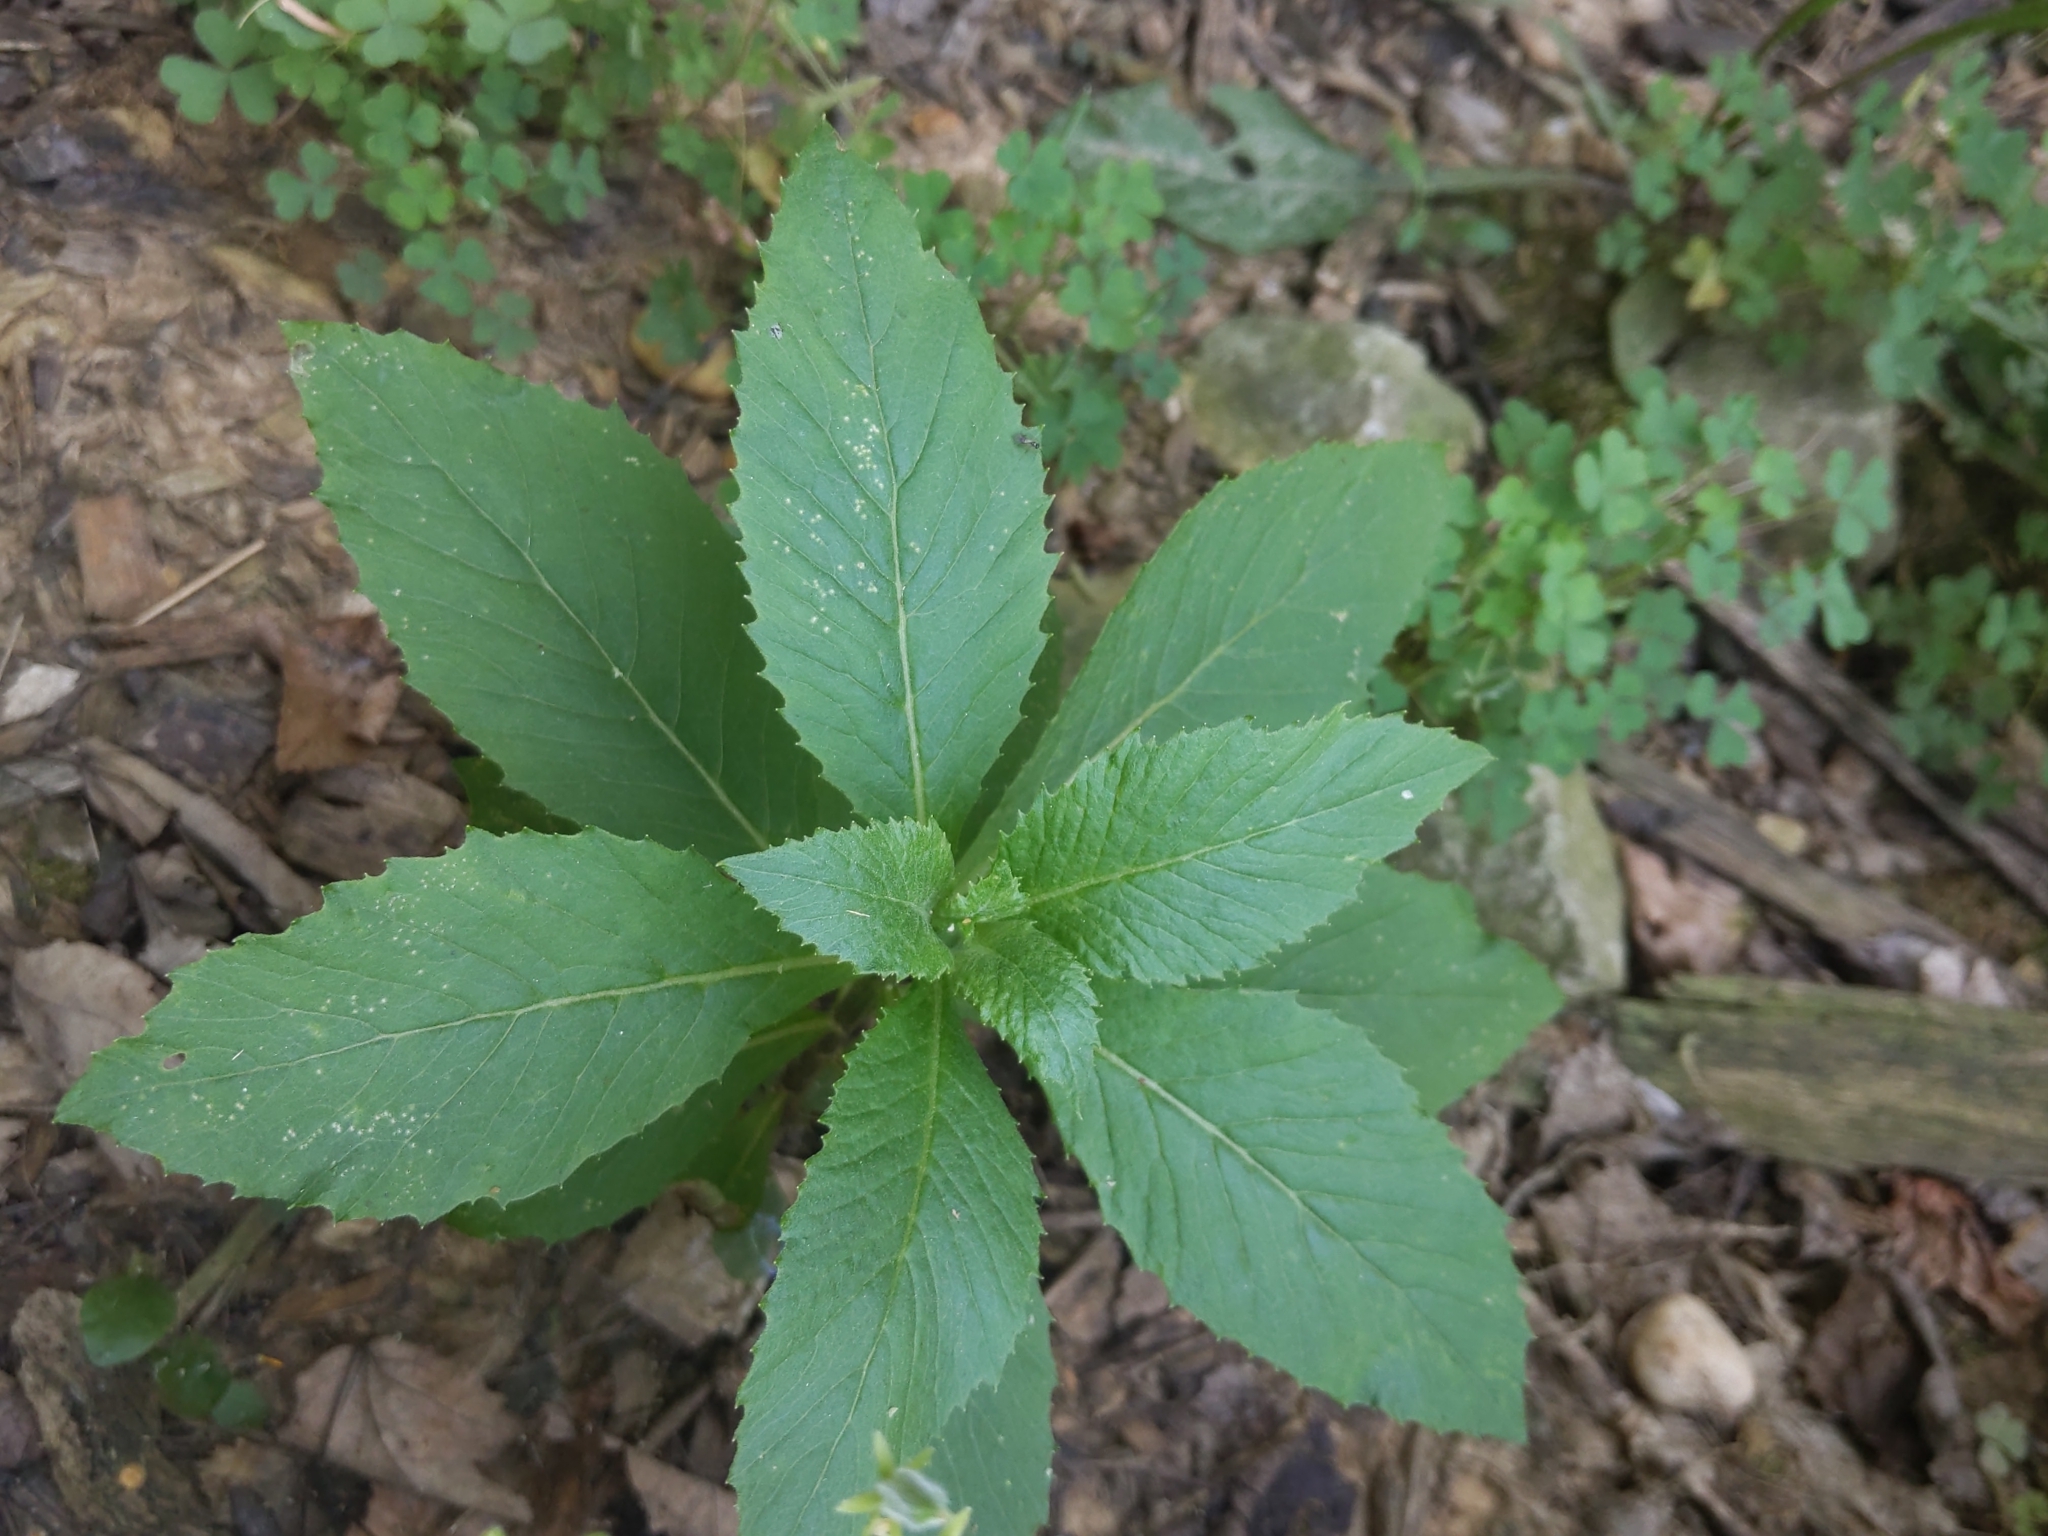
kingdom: Plantae
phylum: Tracheophyta
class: Magnoliopsida
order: Asterales
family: Asteraceae
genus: Erechtites
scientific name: Erechtites hieraciifolius
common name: American burnweed
